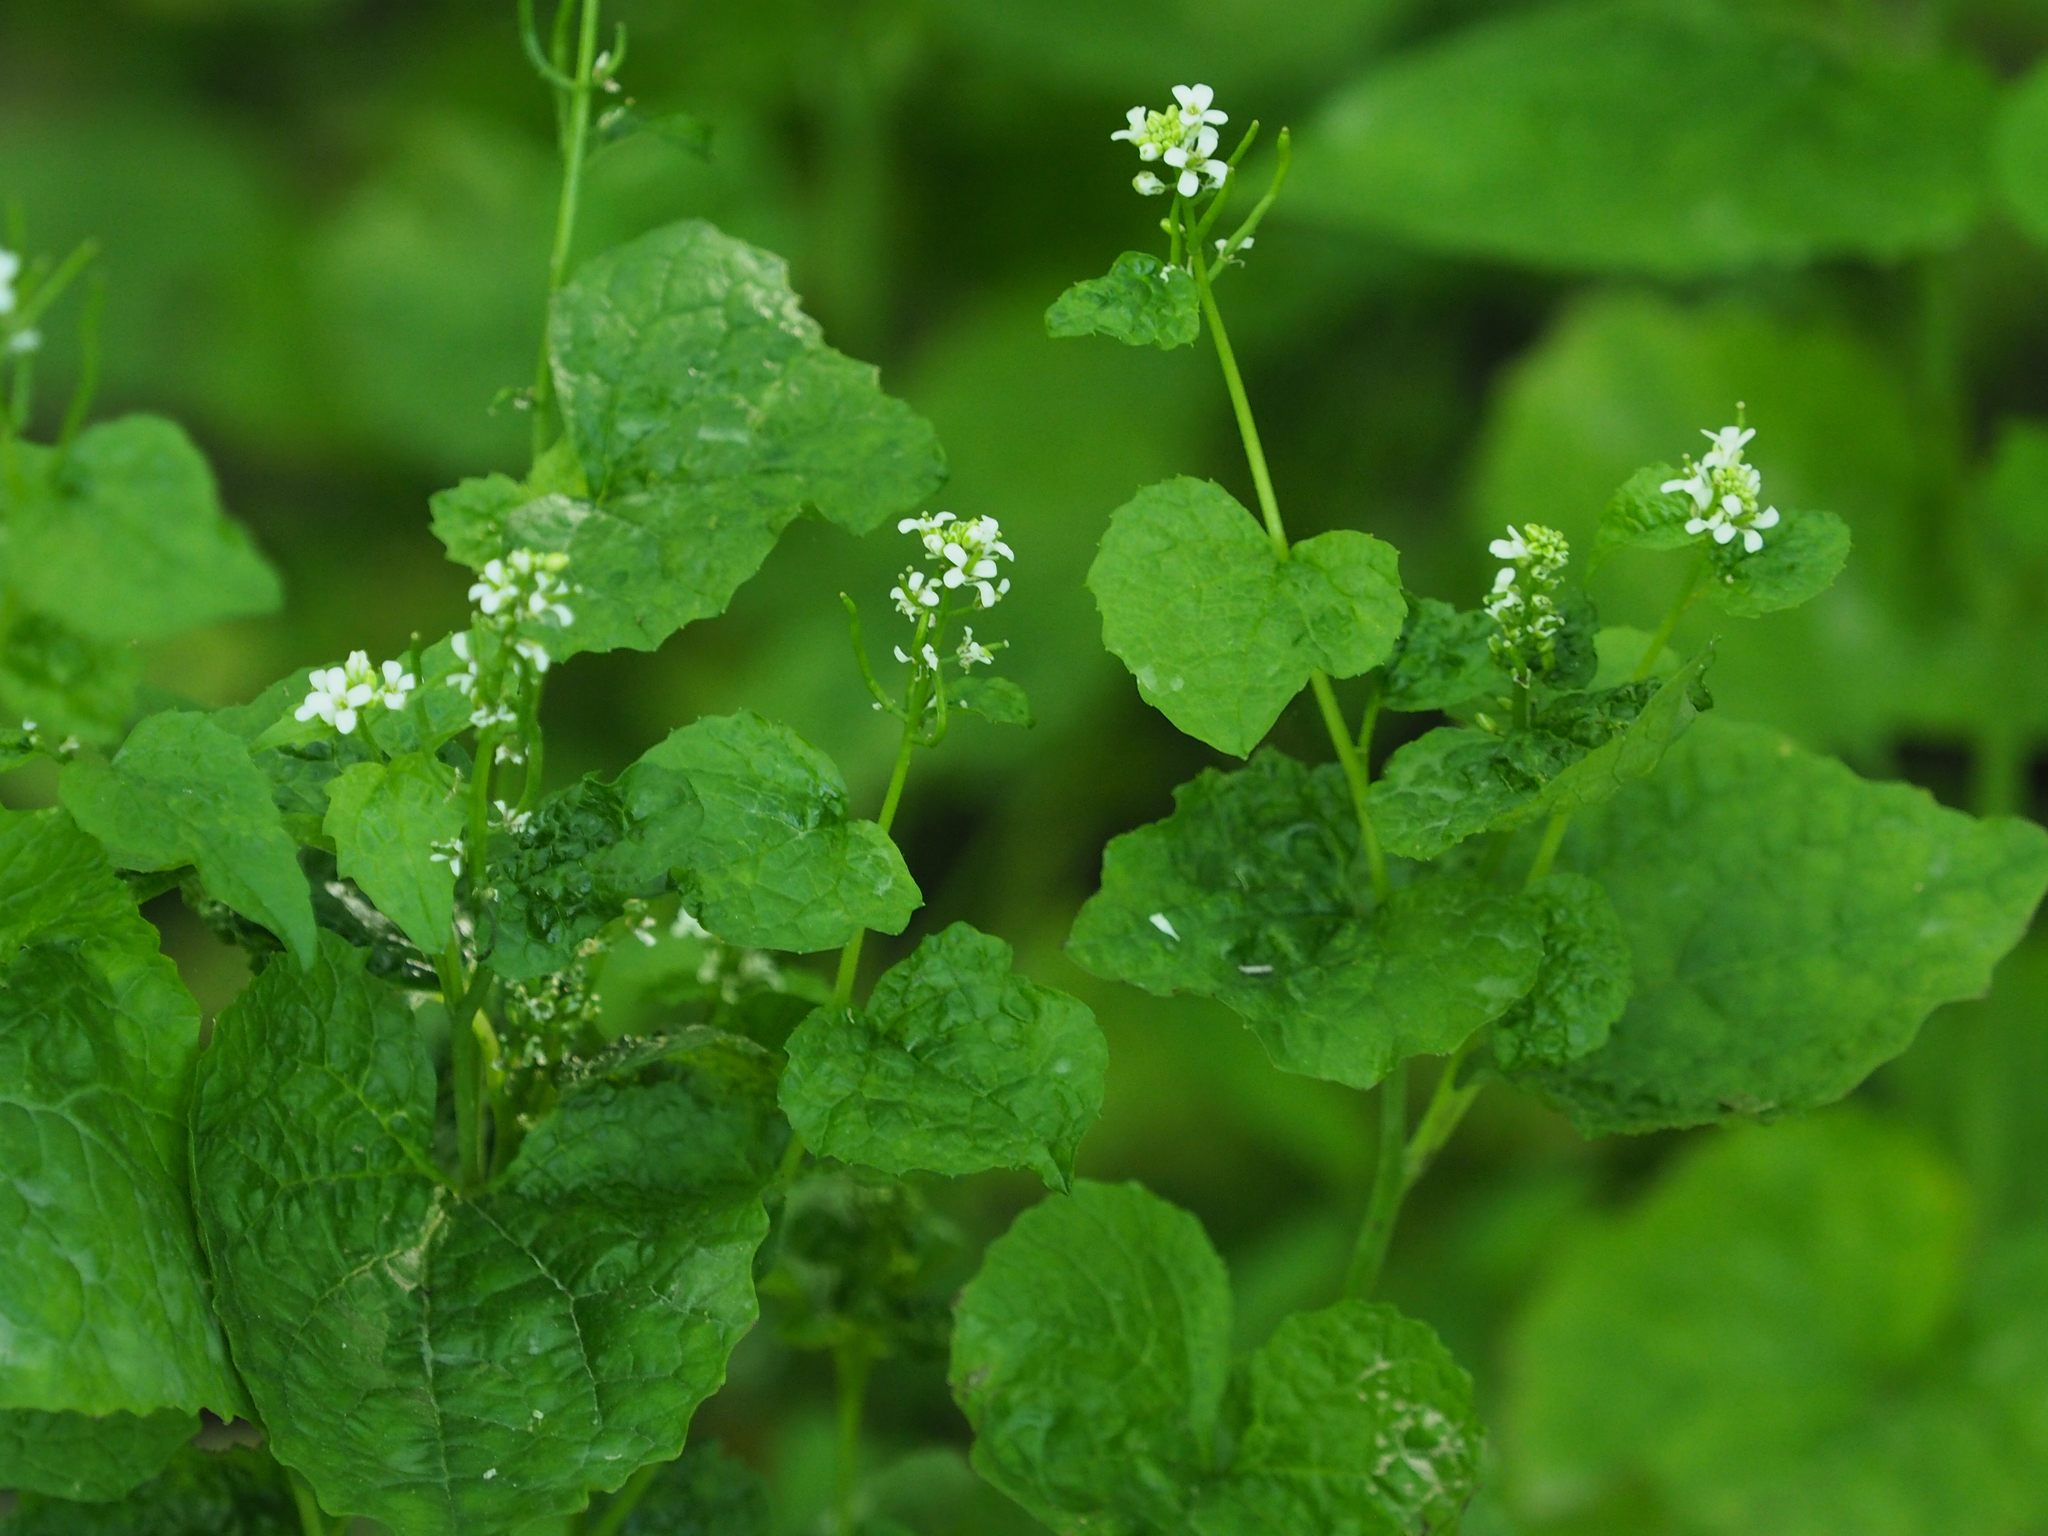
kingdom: Plantae
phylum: Tracheophyta
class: Magnoliopsida
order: Brassicales
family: Brassicaceae
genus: Alliaria
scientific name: Alliaria petiolata
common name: Garlic mustard
